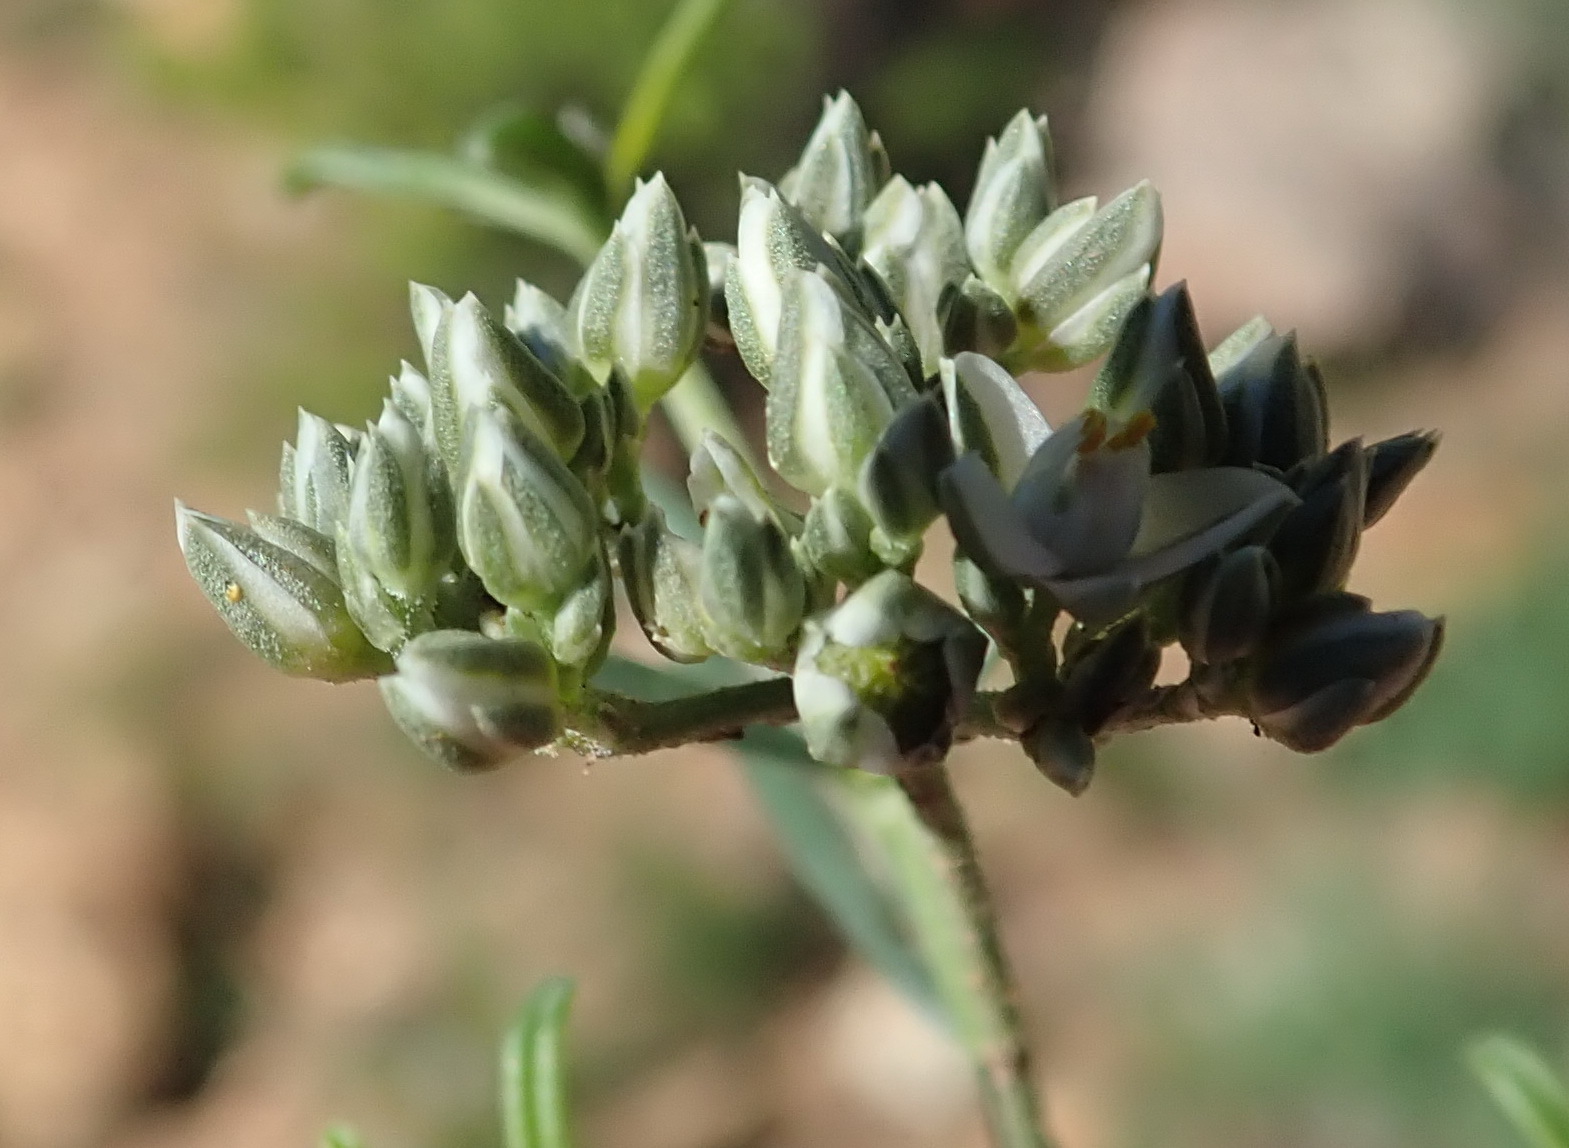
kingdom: Plantae
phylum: Tracheophyta
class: Magnoliopsida
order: Caryophyllales
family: Limeaceae
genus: Limeum
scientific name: Limeum aethiopicum
